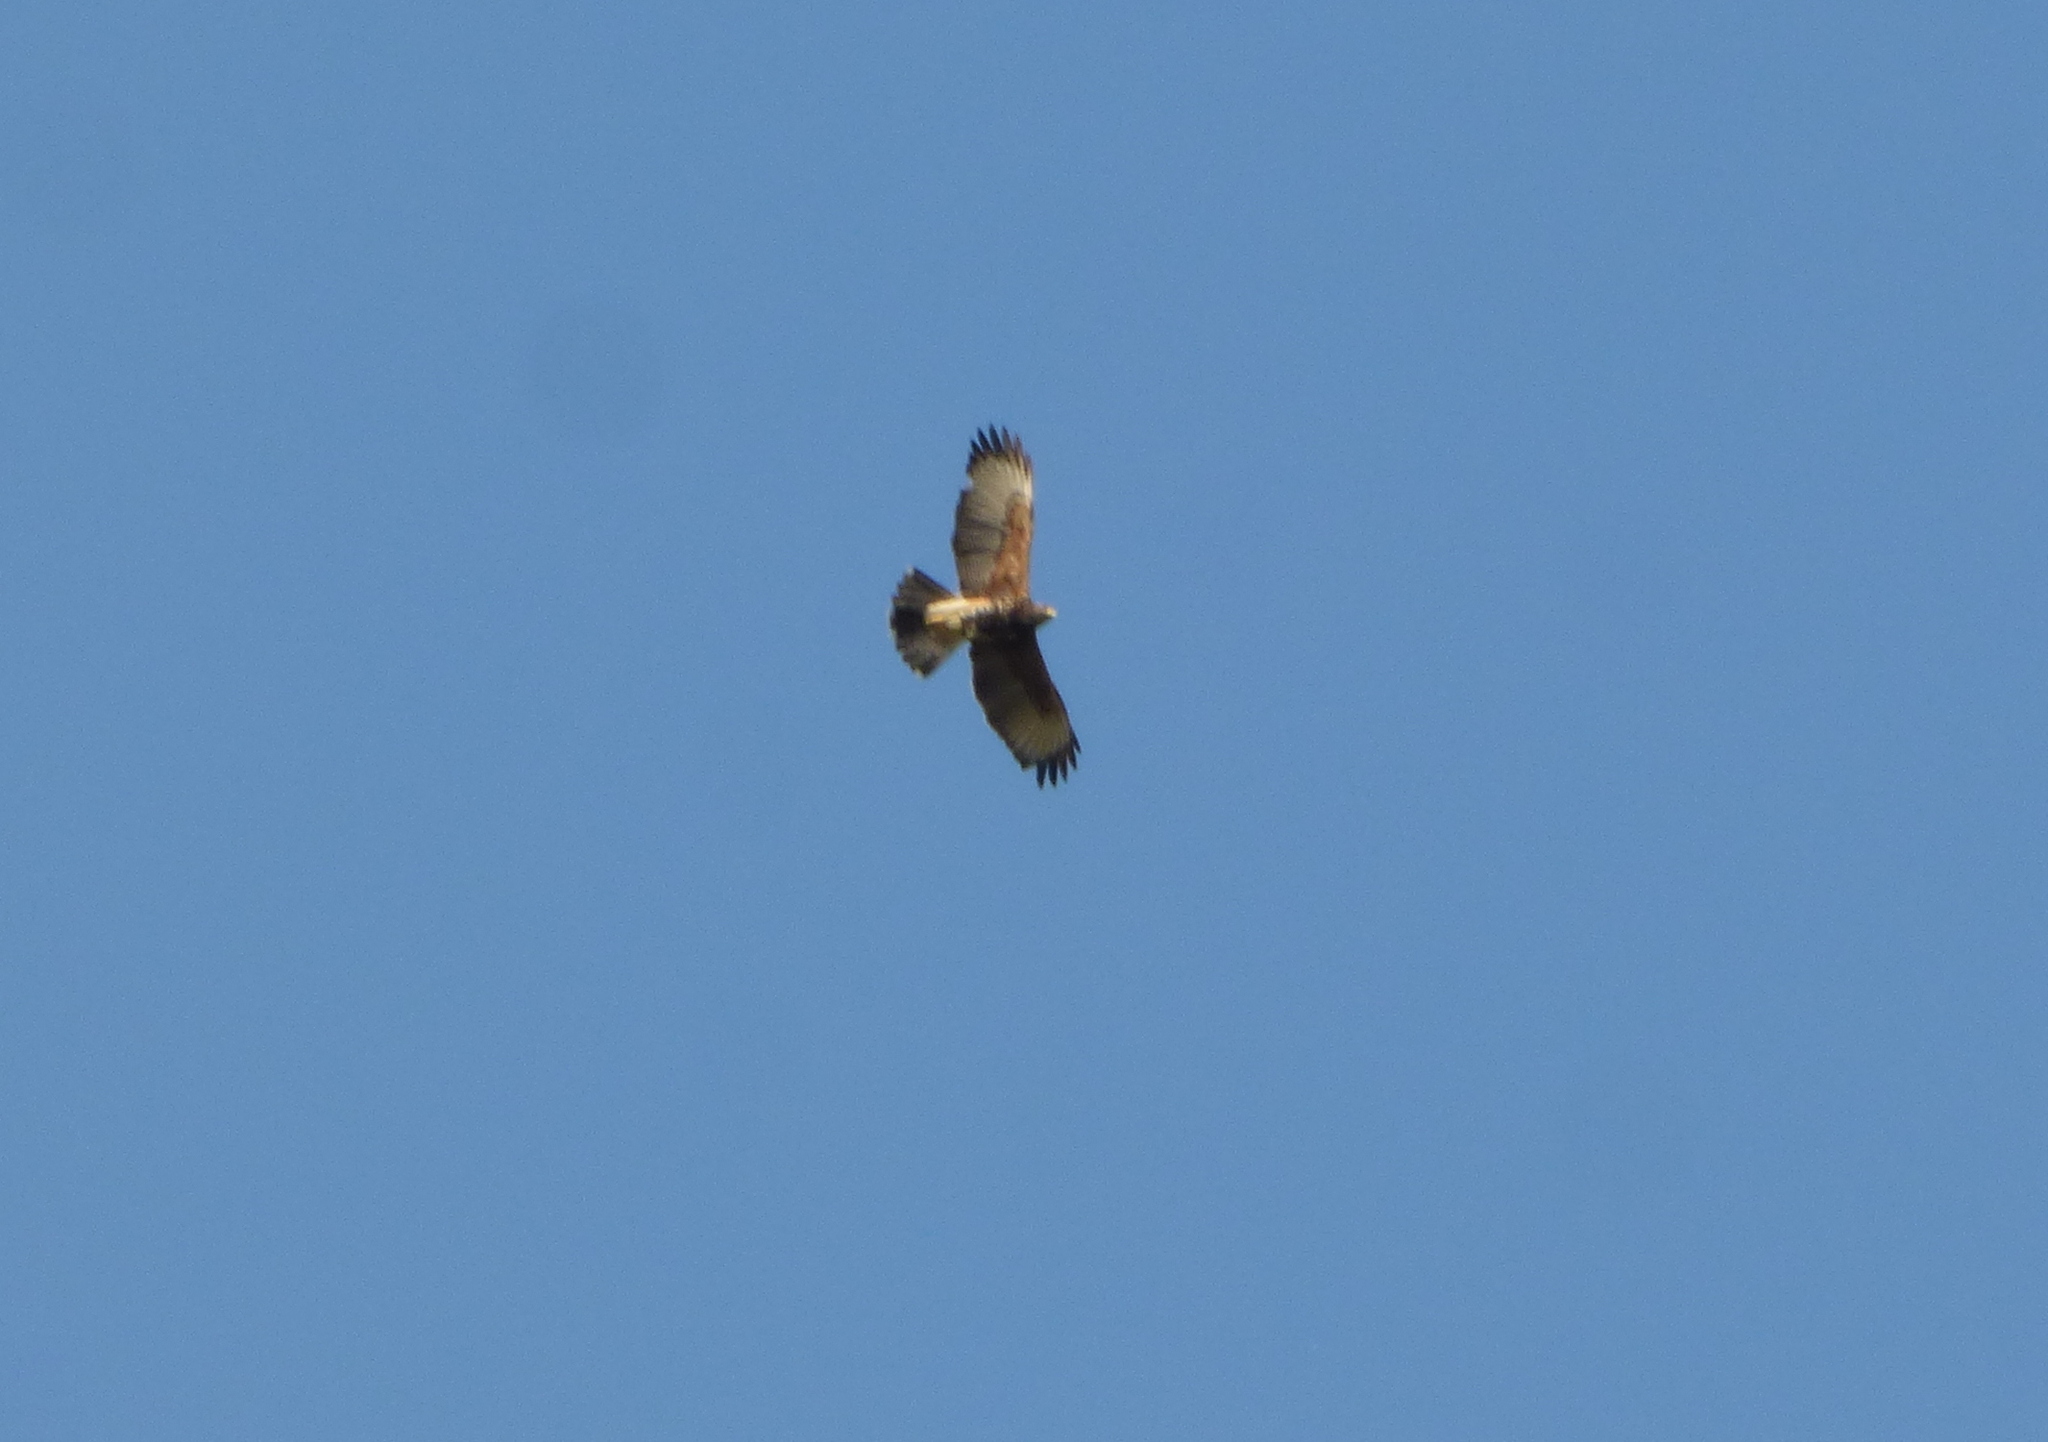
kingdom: Animalia
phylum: Chordata
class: Aves
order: Accipitriformes
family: Accipitridae
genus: Parabuteo
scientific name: Parabuteo unicinctus
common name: Harris's hawk
